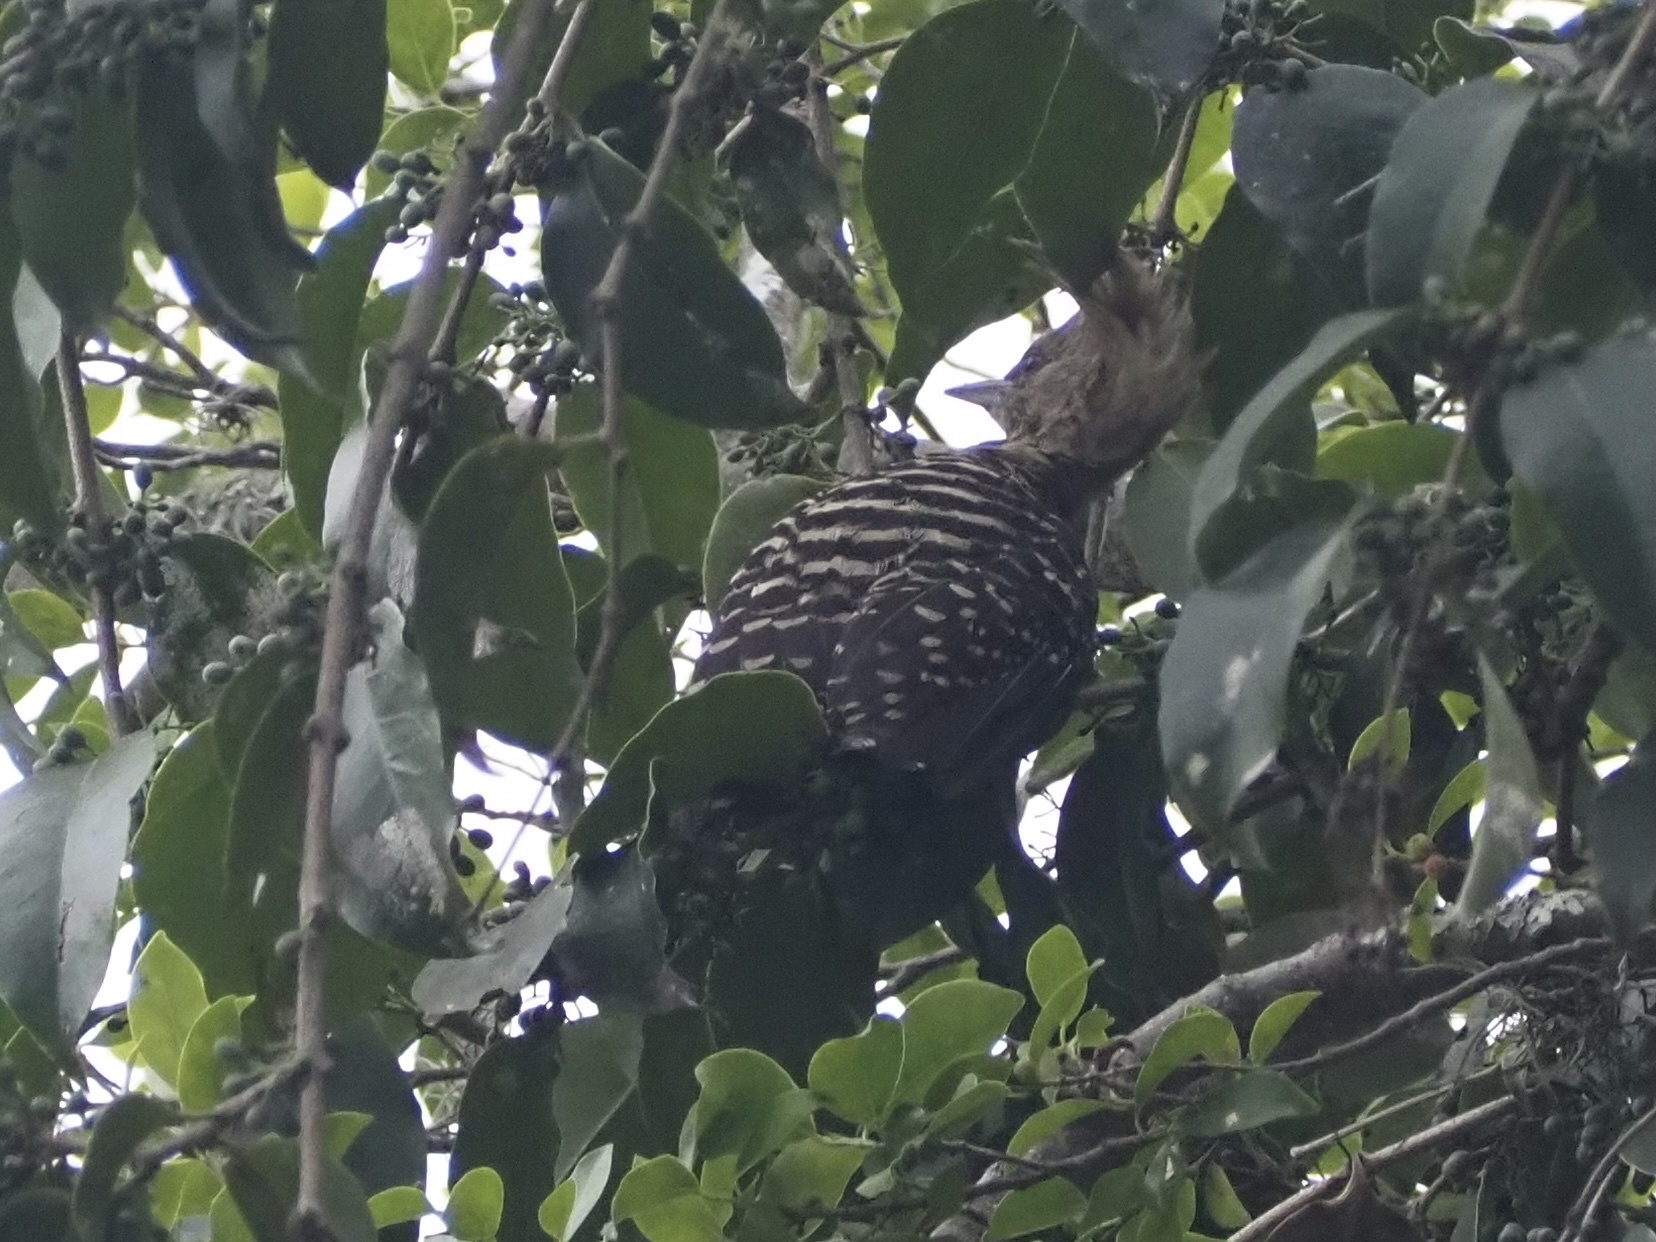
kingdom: Animalia
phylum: Chordata
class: Aves
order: Piciformes
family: Picidae
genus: Celeus
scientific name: Celeus flavescens
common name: Blond-crested woodpecker
